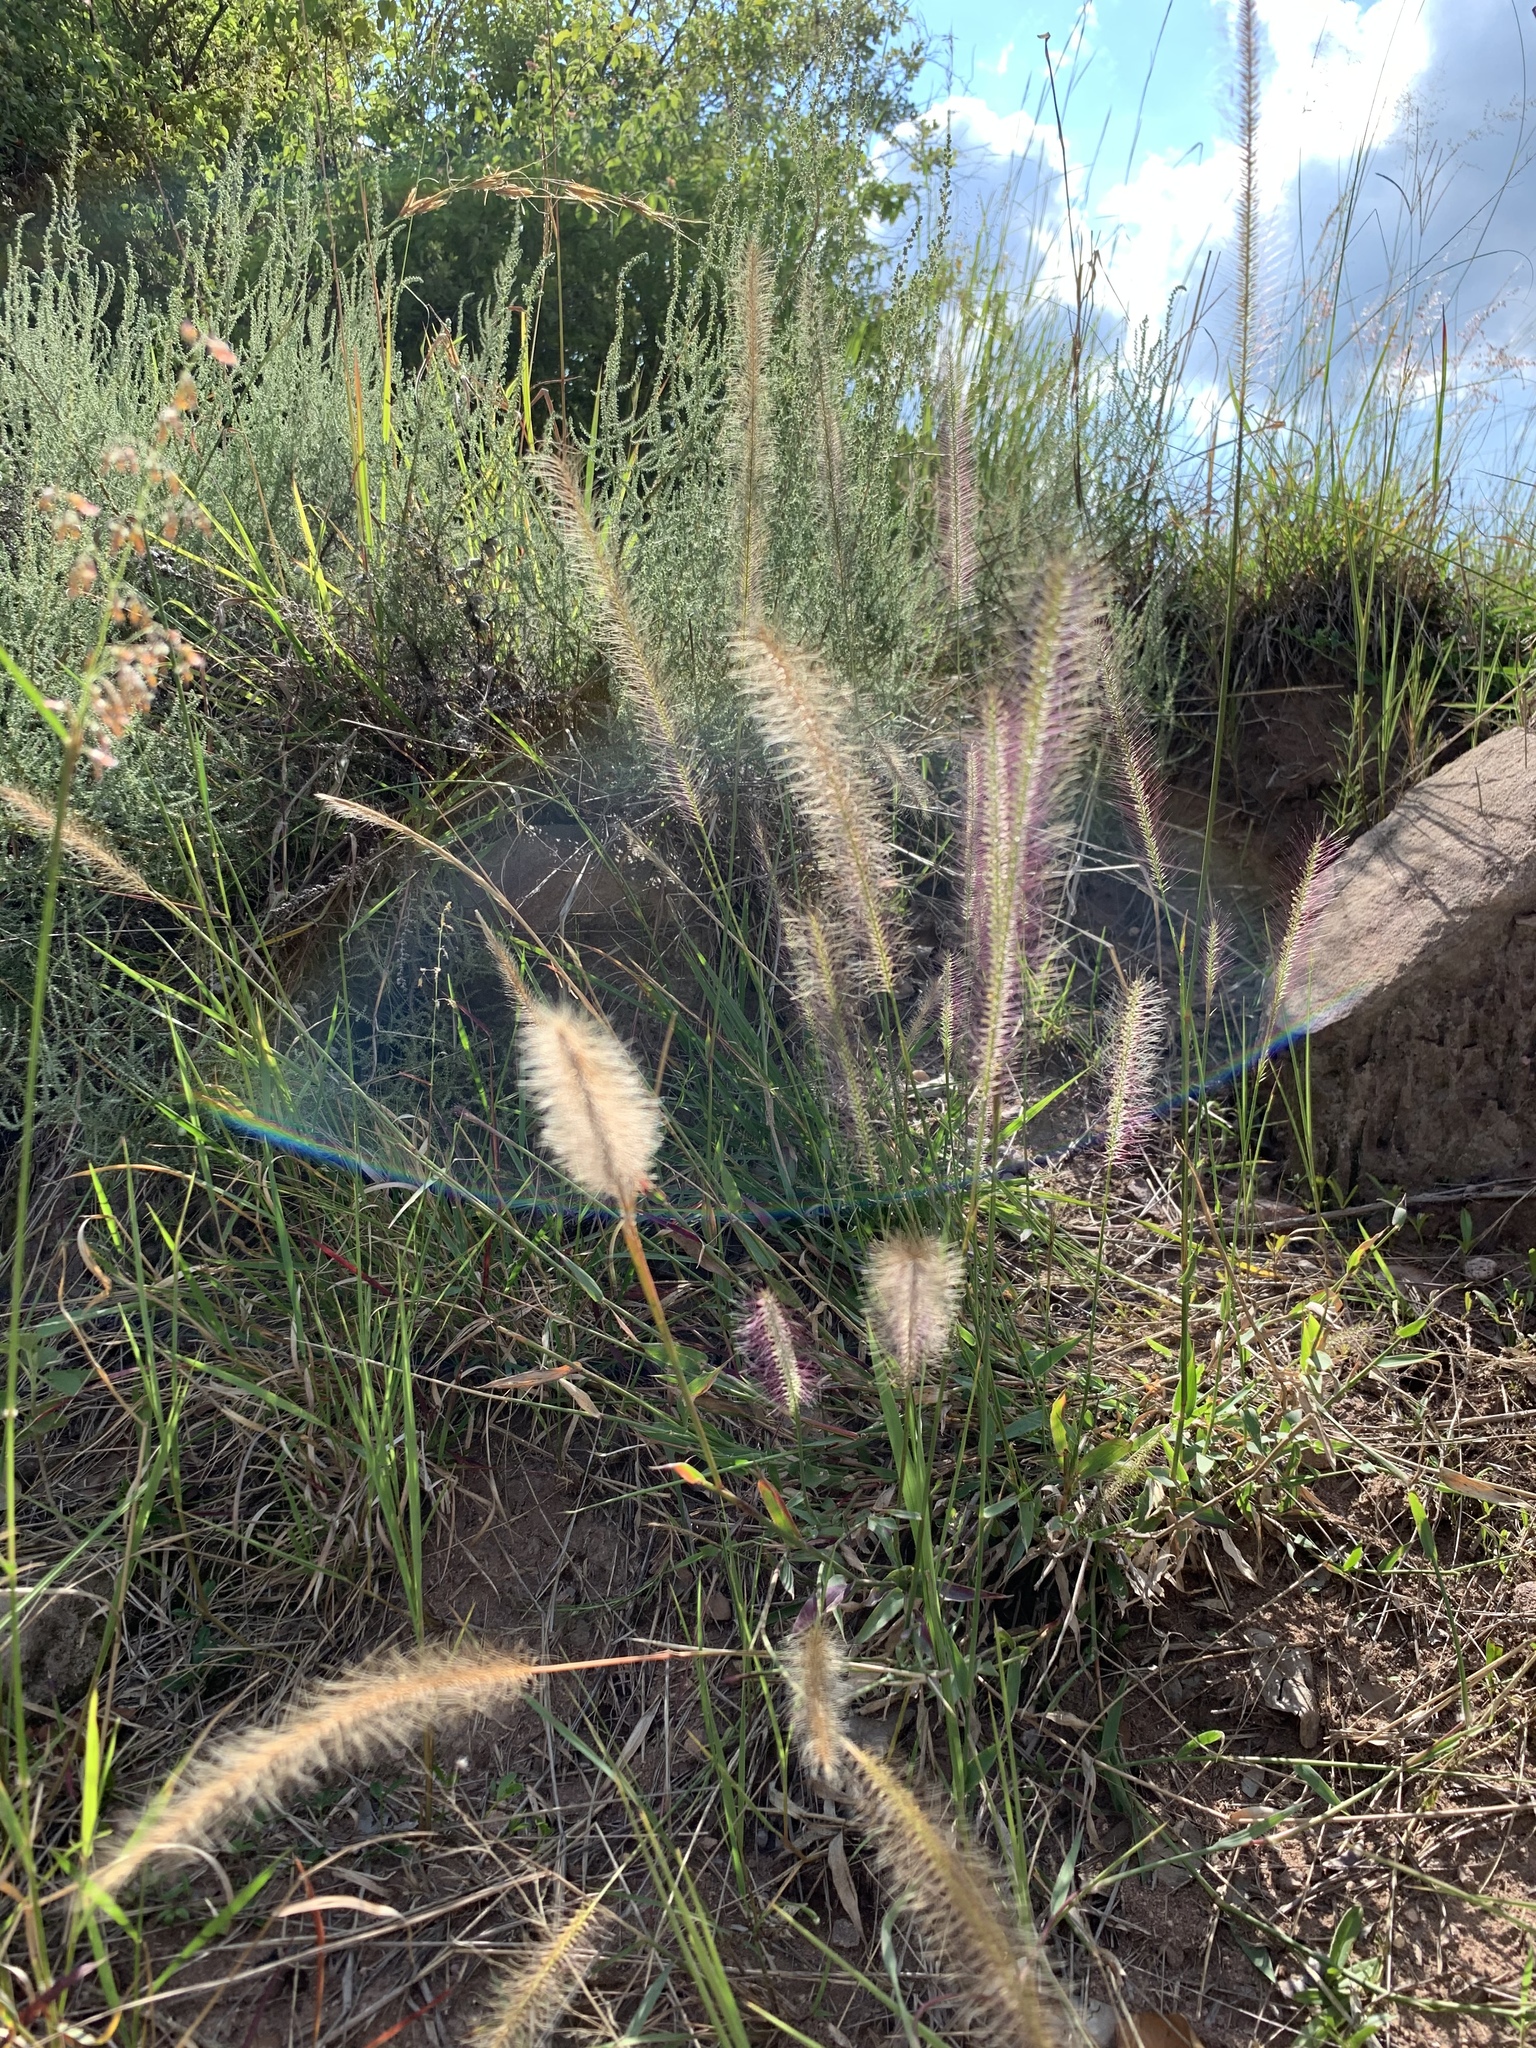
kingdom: Plantae
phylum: Tracheophyta
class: Liliopsida
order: Poales
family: Poaceae
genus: Perotis
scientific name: Perotis patens
